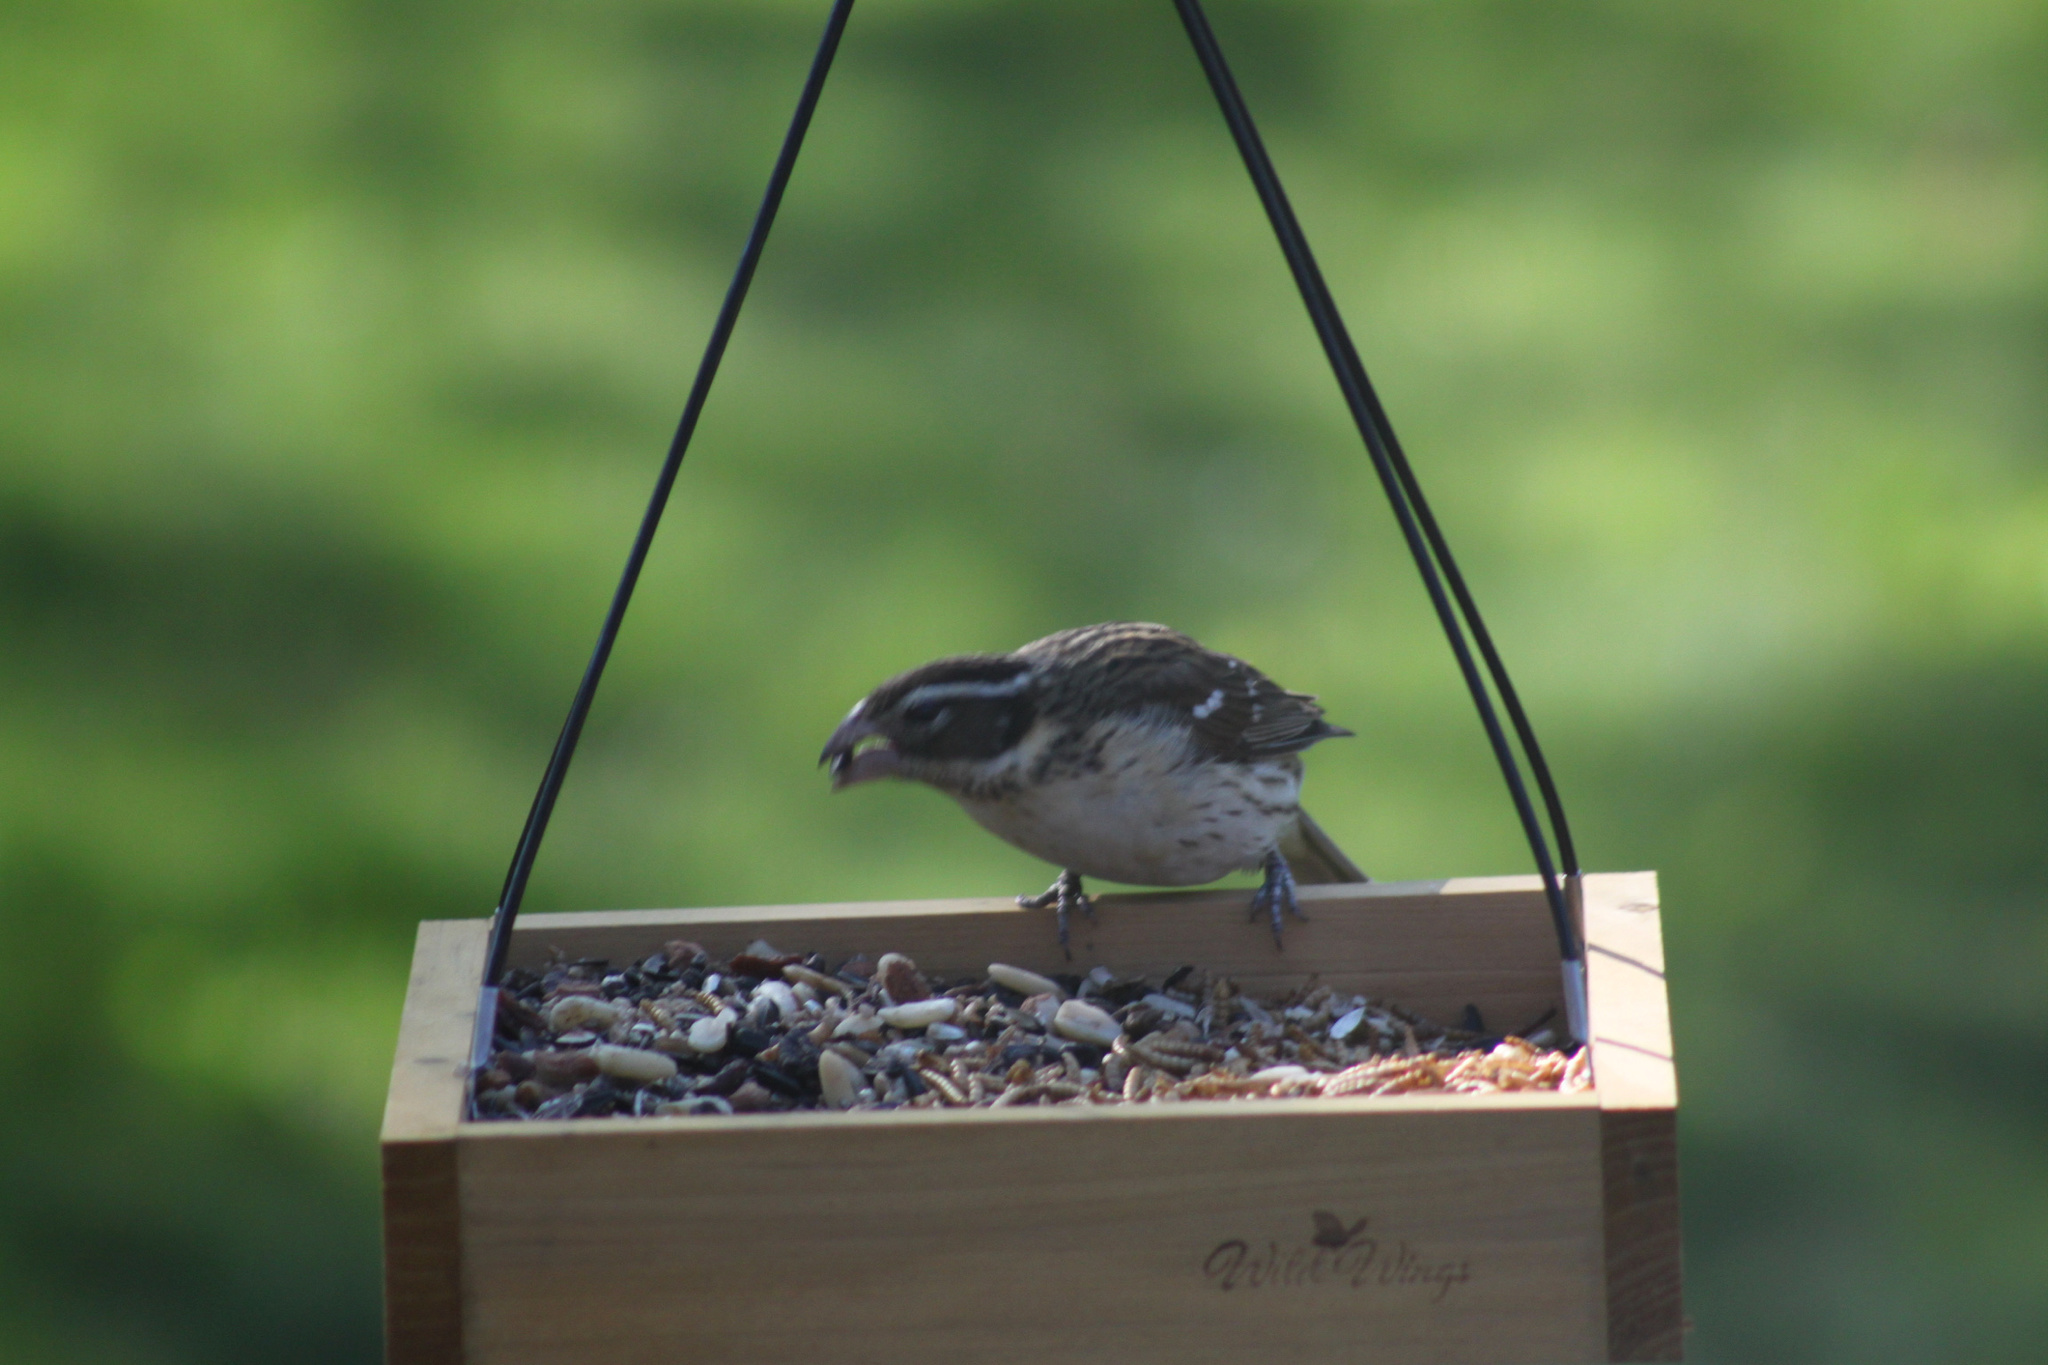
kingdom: Animalia
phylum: Chordata
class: Aves
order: Passeriformes
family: Cardinalidae
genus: Pheucticus
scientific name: Pheucticus ludovicianus
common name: Rose-breasted grosbeak
